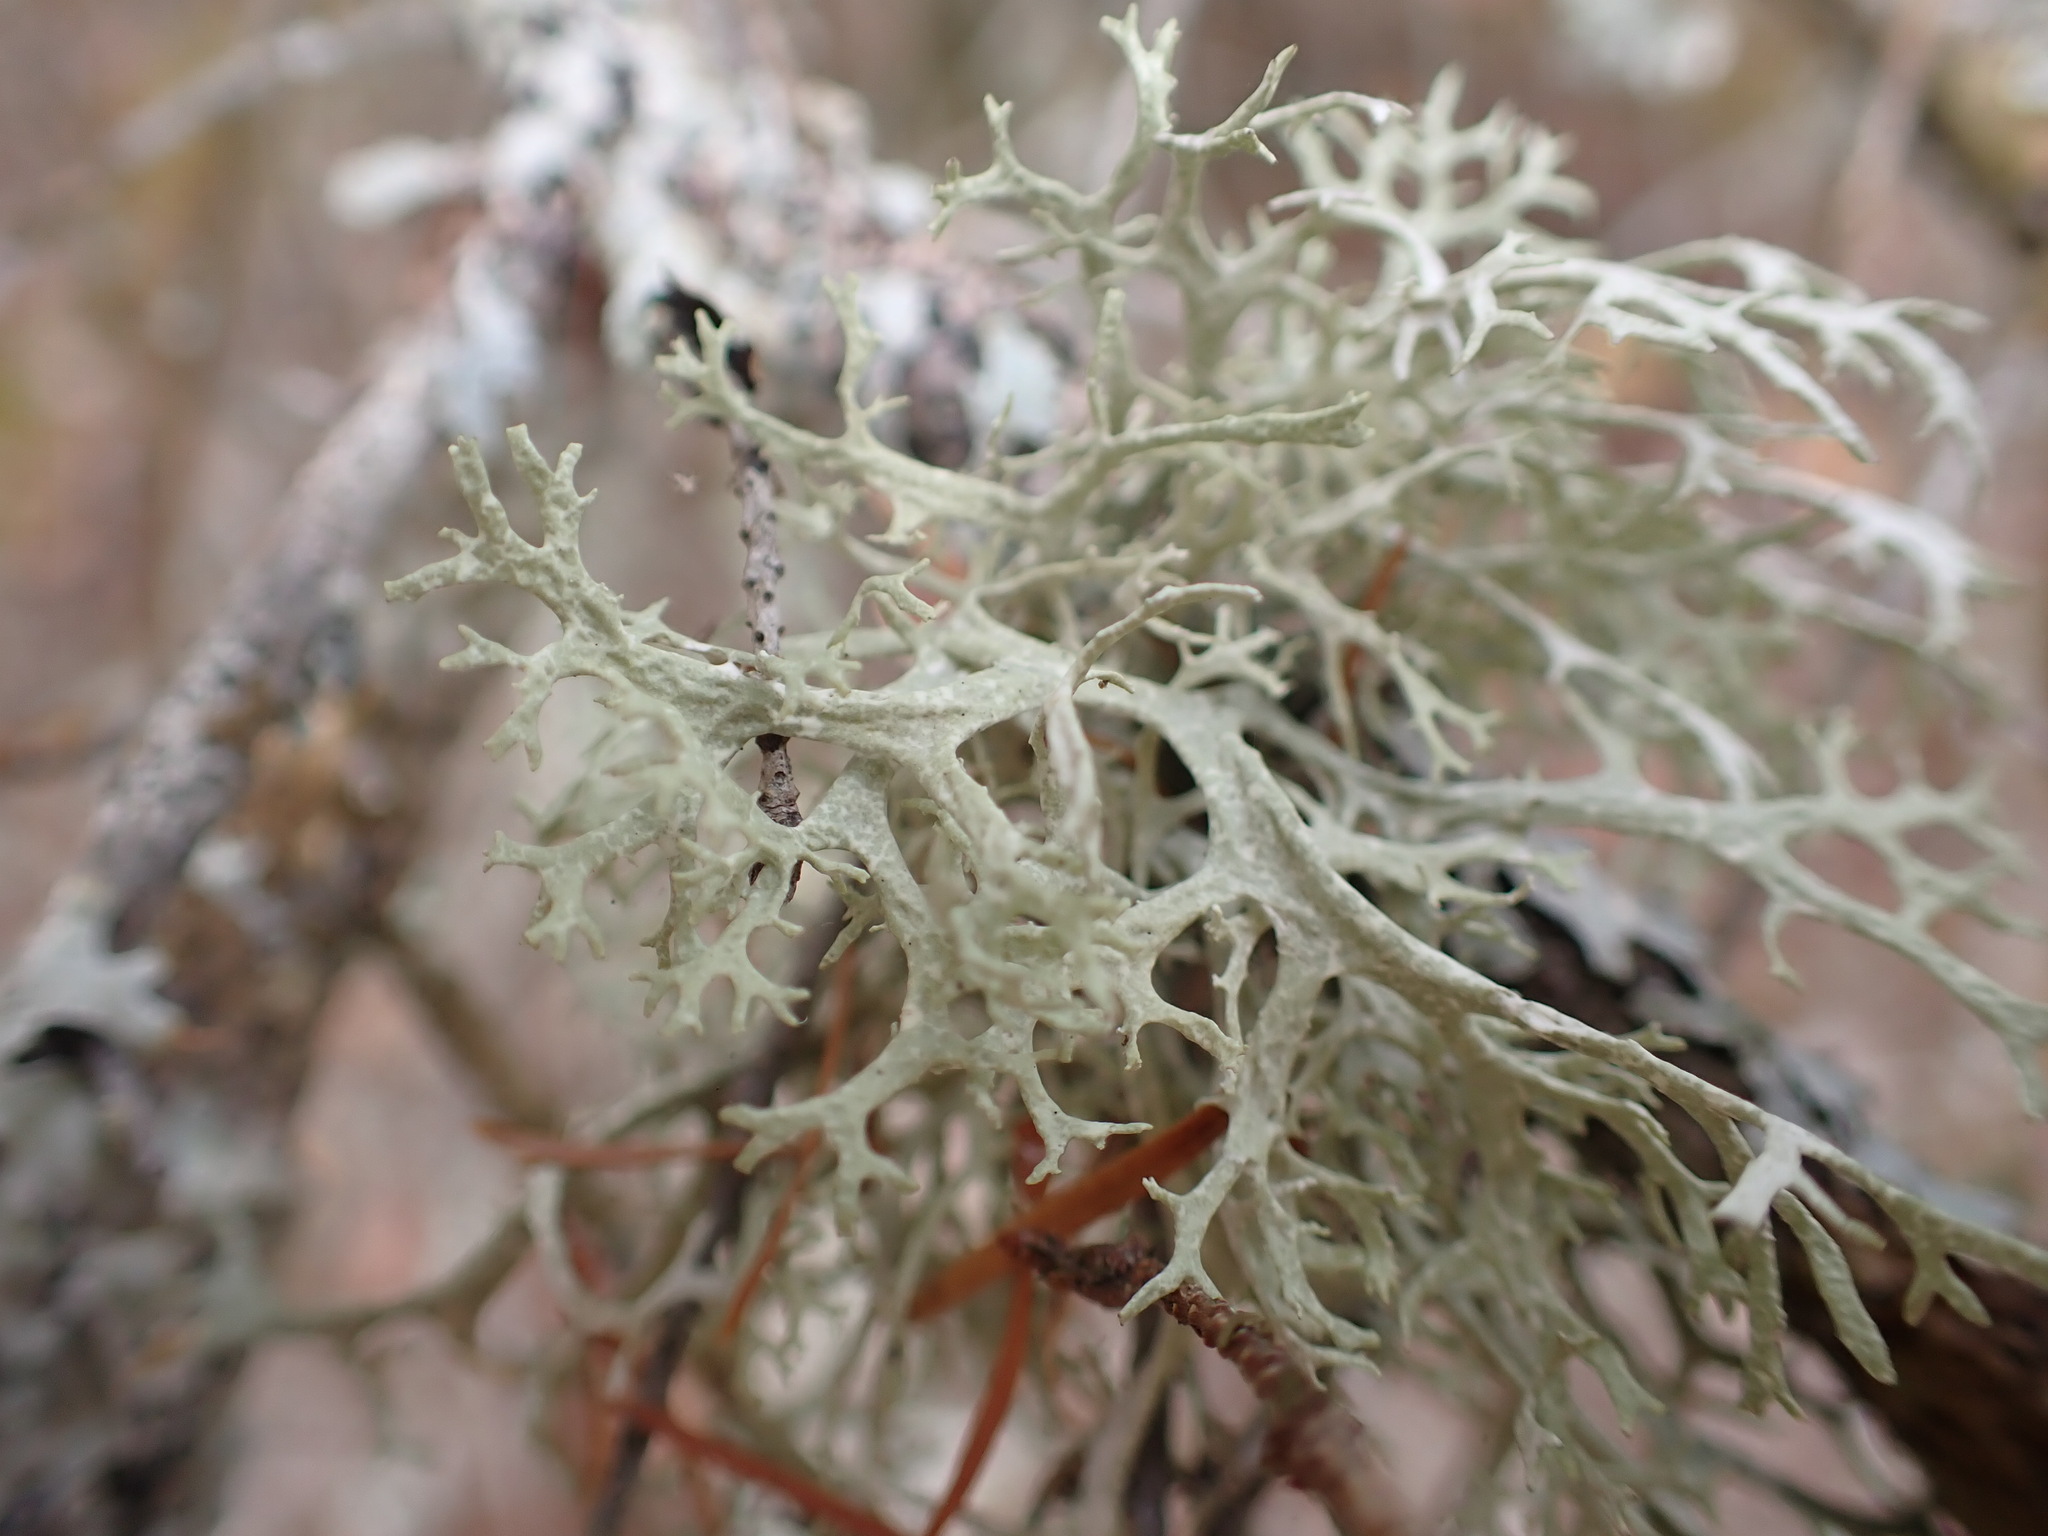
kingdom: Fungi
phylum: Ascomycota
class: Lecanoromycetes
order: Lecanorales
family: Parmeliaceae
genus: Evernia
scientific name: Evernia prunastri
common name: Oak moss
